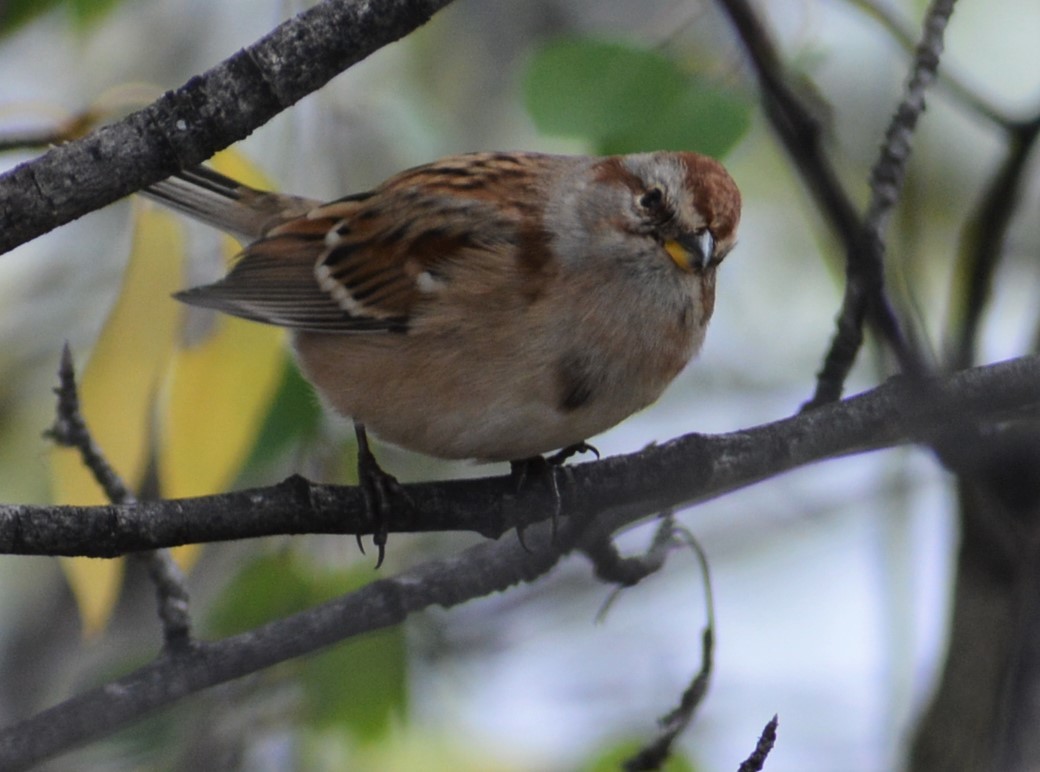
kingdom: Animalia
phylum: Chordata
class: Aves
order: Passeriformes
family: Passerellidae
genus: Spizelloides
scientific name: Spizelloides arborea
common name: American tree sparrow
